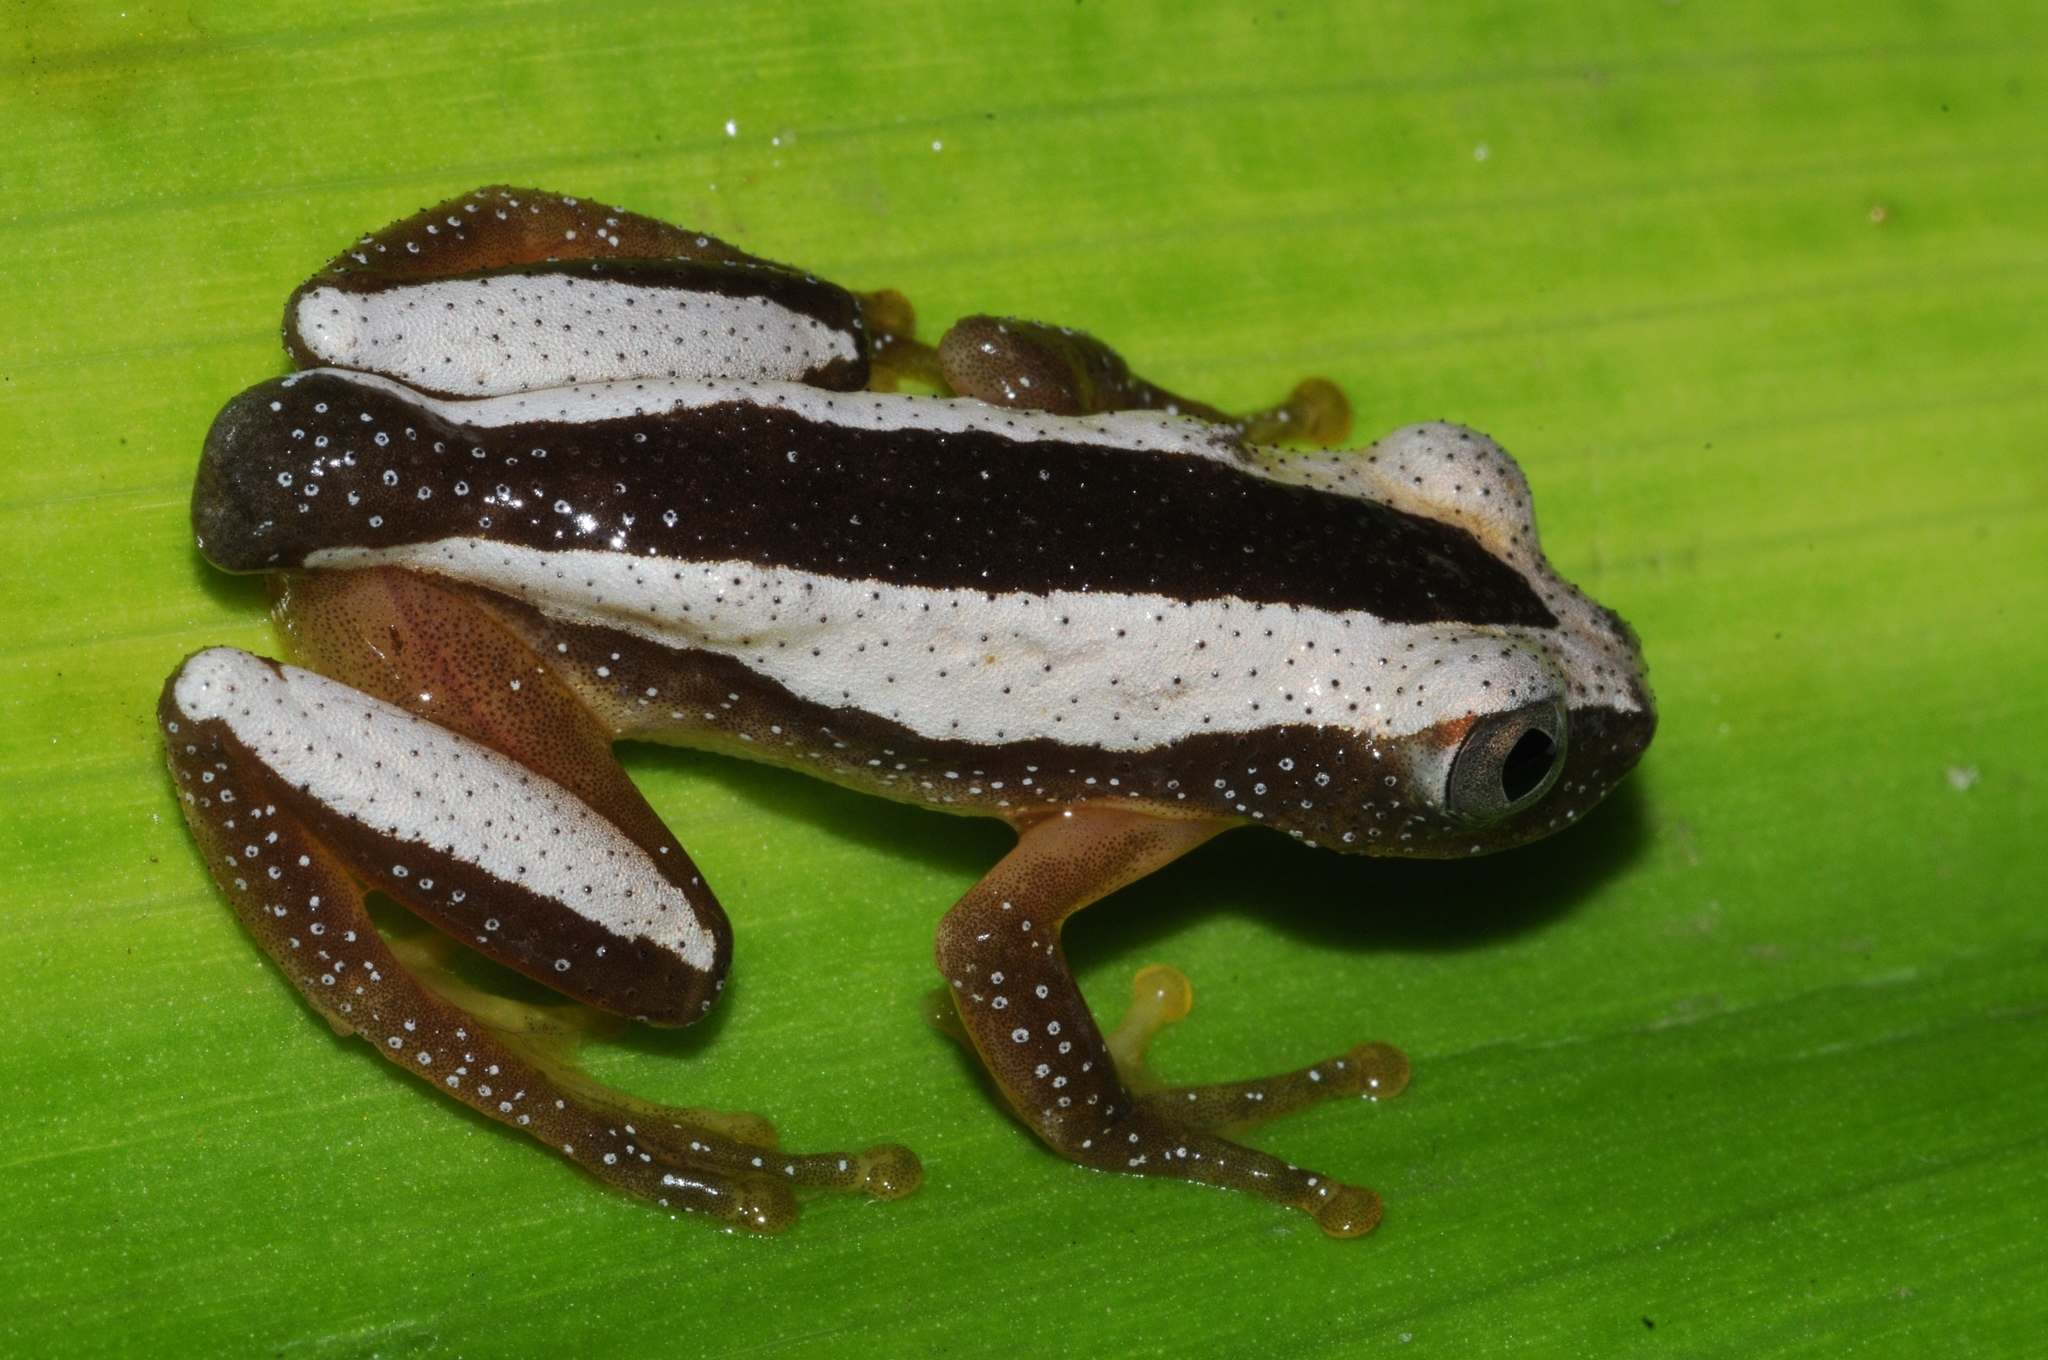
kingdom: Animalia
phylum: Chordata
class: Amphibia
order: Anura
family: Hyperoliidae
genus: Afrixalus
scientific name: Afrixalus fornasini
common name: Fornasini's spiny reed frog
